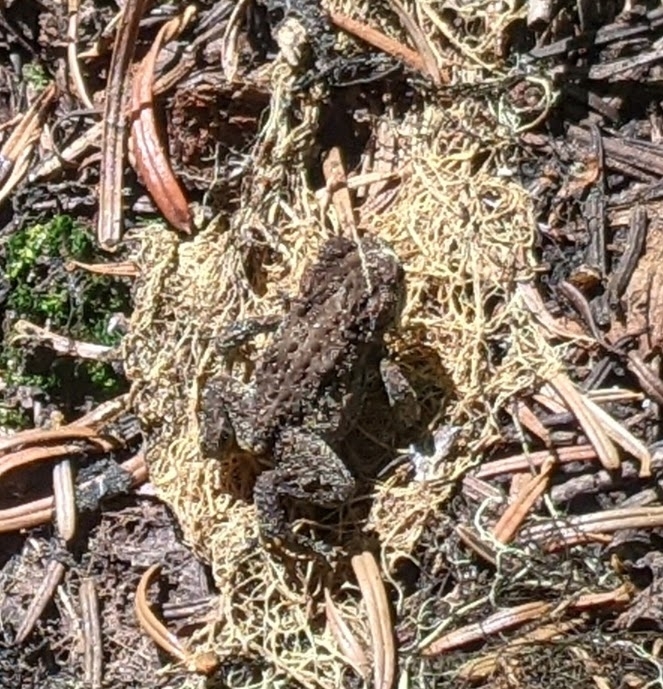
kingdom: Animalia
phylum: Chordata
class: Amphibia
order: Anura
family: Bufonidae
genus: Anaxyrus
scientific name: Anaxyrus boreas
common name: Western toad
